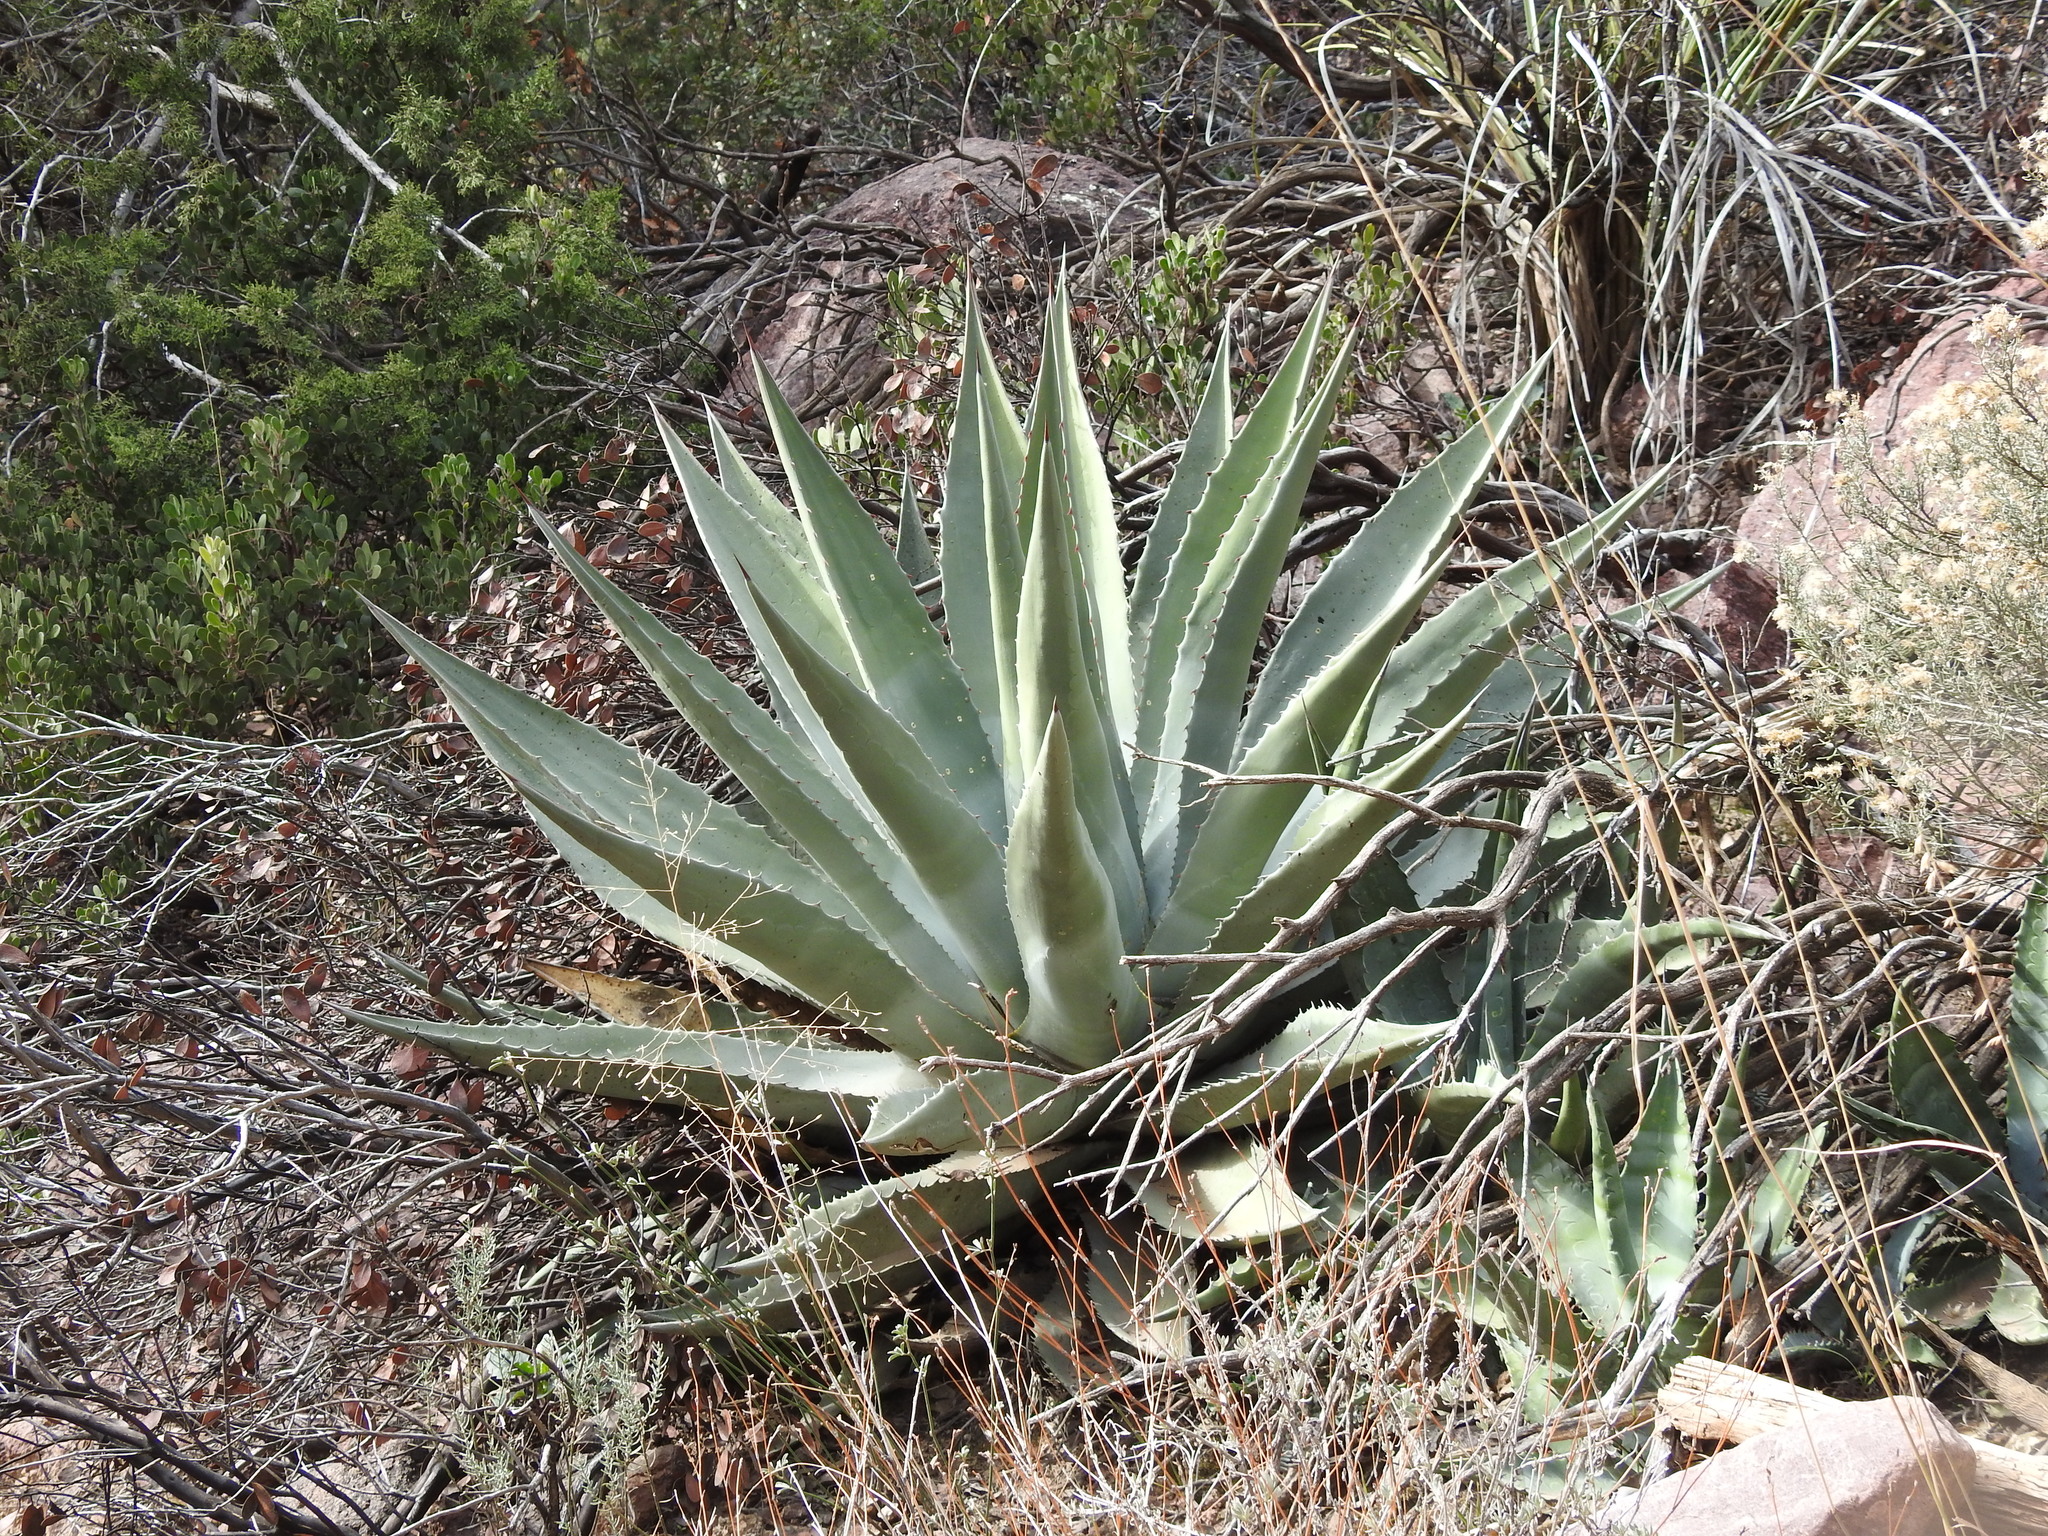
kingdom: Plantae
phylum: Tracheophyta
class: Liliopsida
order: Asparagales
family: Asparagaceae
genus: Agave
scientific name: Agave chrysantha
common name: Golden-flowered agave
